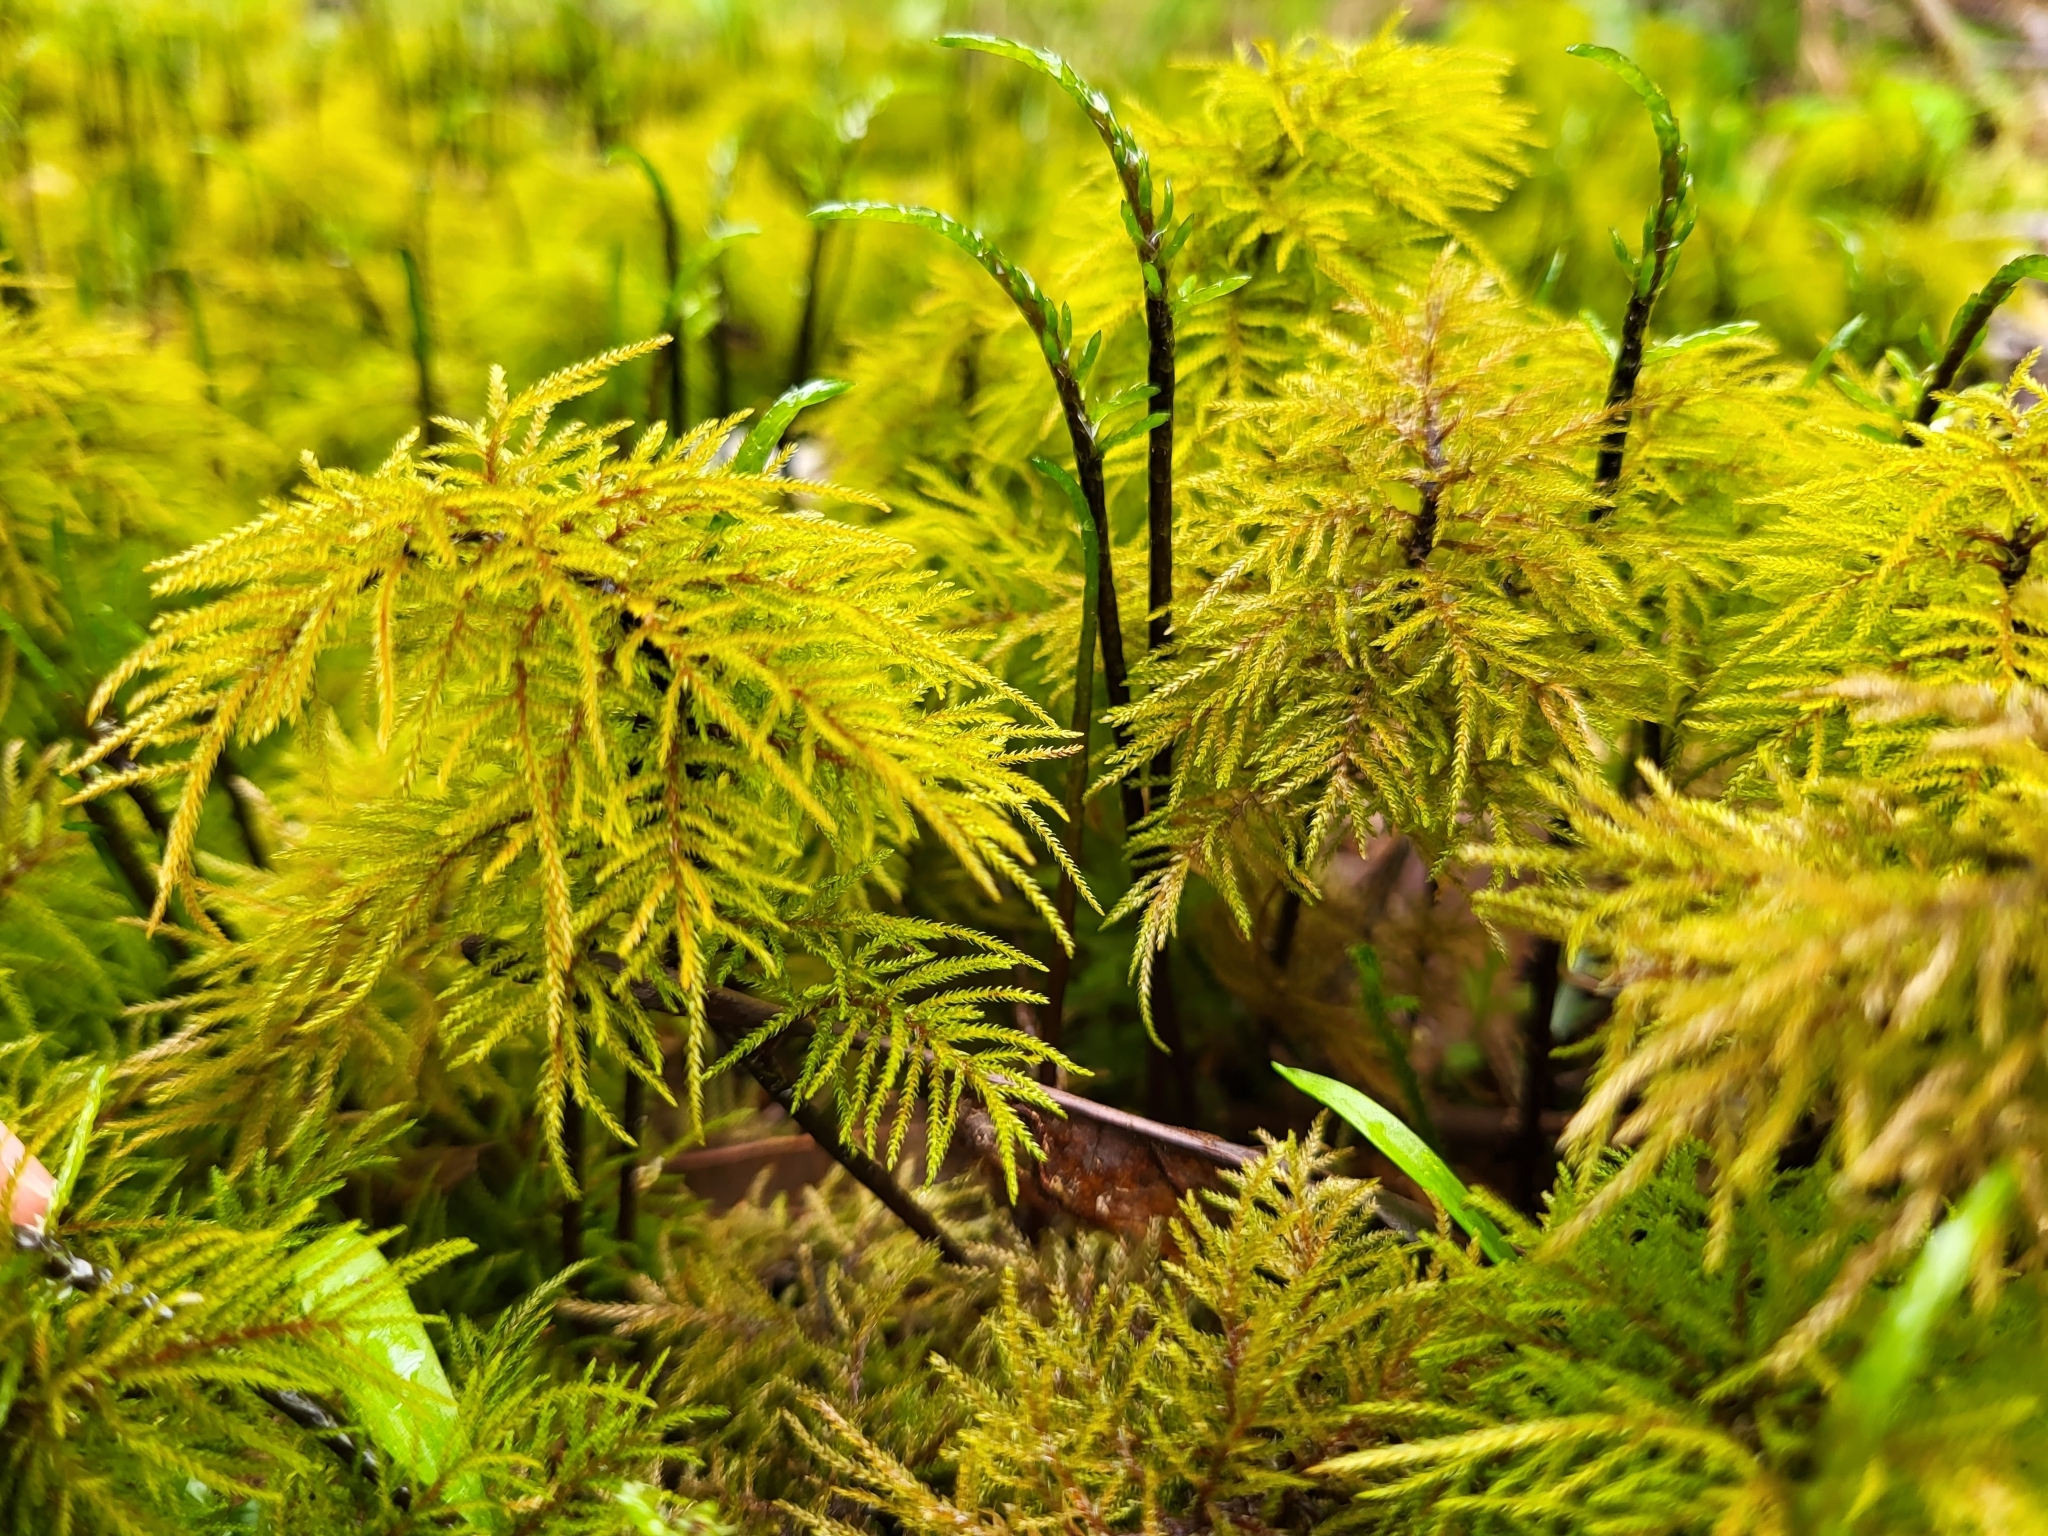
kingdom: Plantae
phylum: Bryophyta
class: Bryopsida
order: Hypnales
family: Climaciaceae
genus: Pleuroziopsis
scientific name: Pleuroziopsis ruthenica
